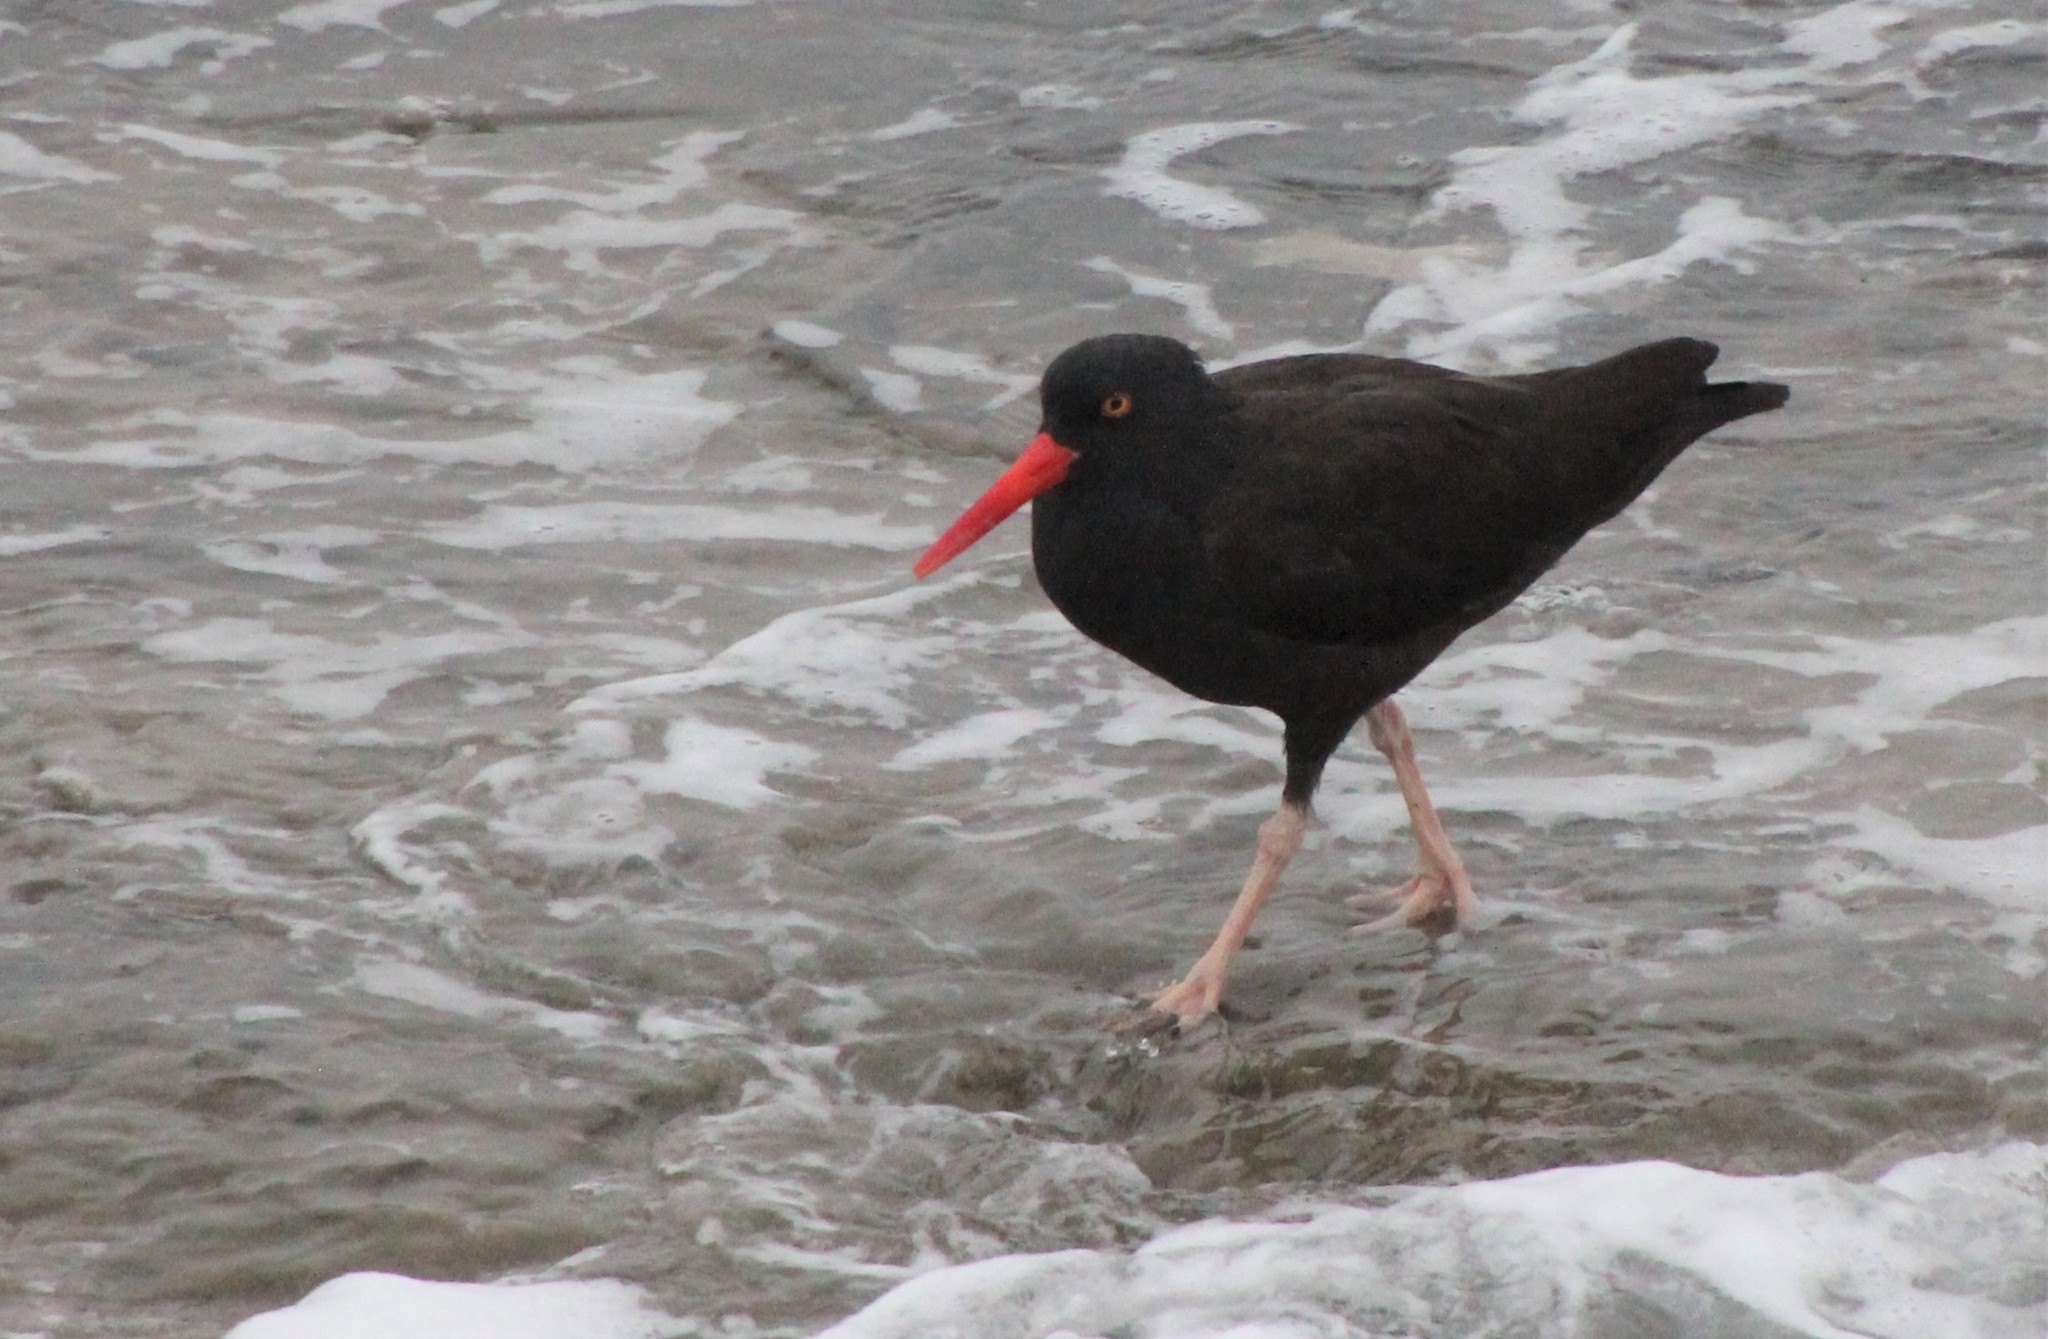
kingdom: Animalia
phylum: Chordata
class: Aves
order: Charadriiformes
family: Haematopodidae
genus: Haematopus
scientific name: Haematopus bachmani
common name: Black oystercatcher
